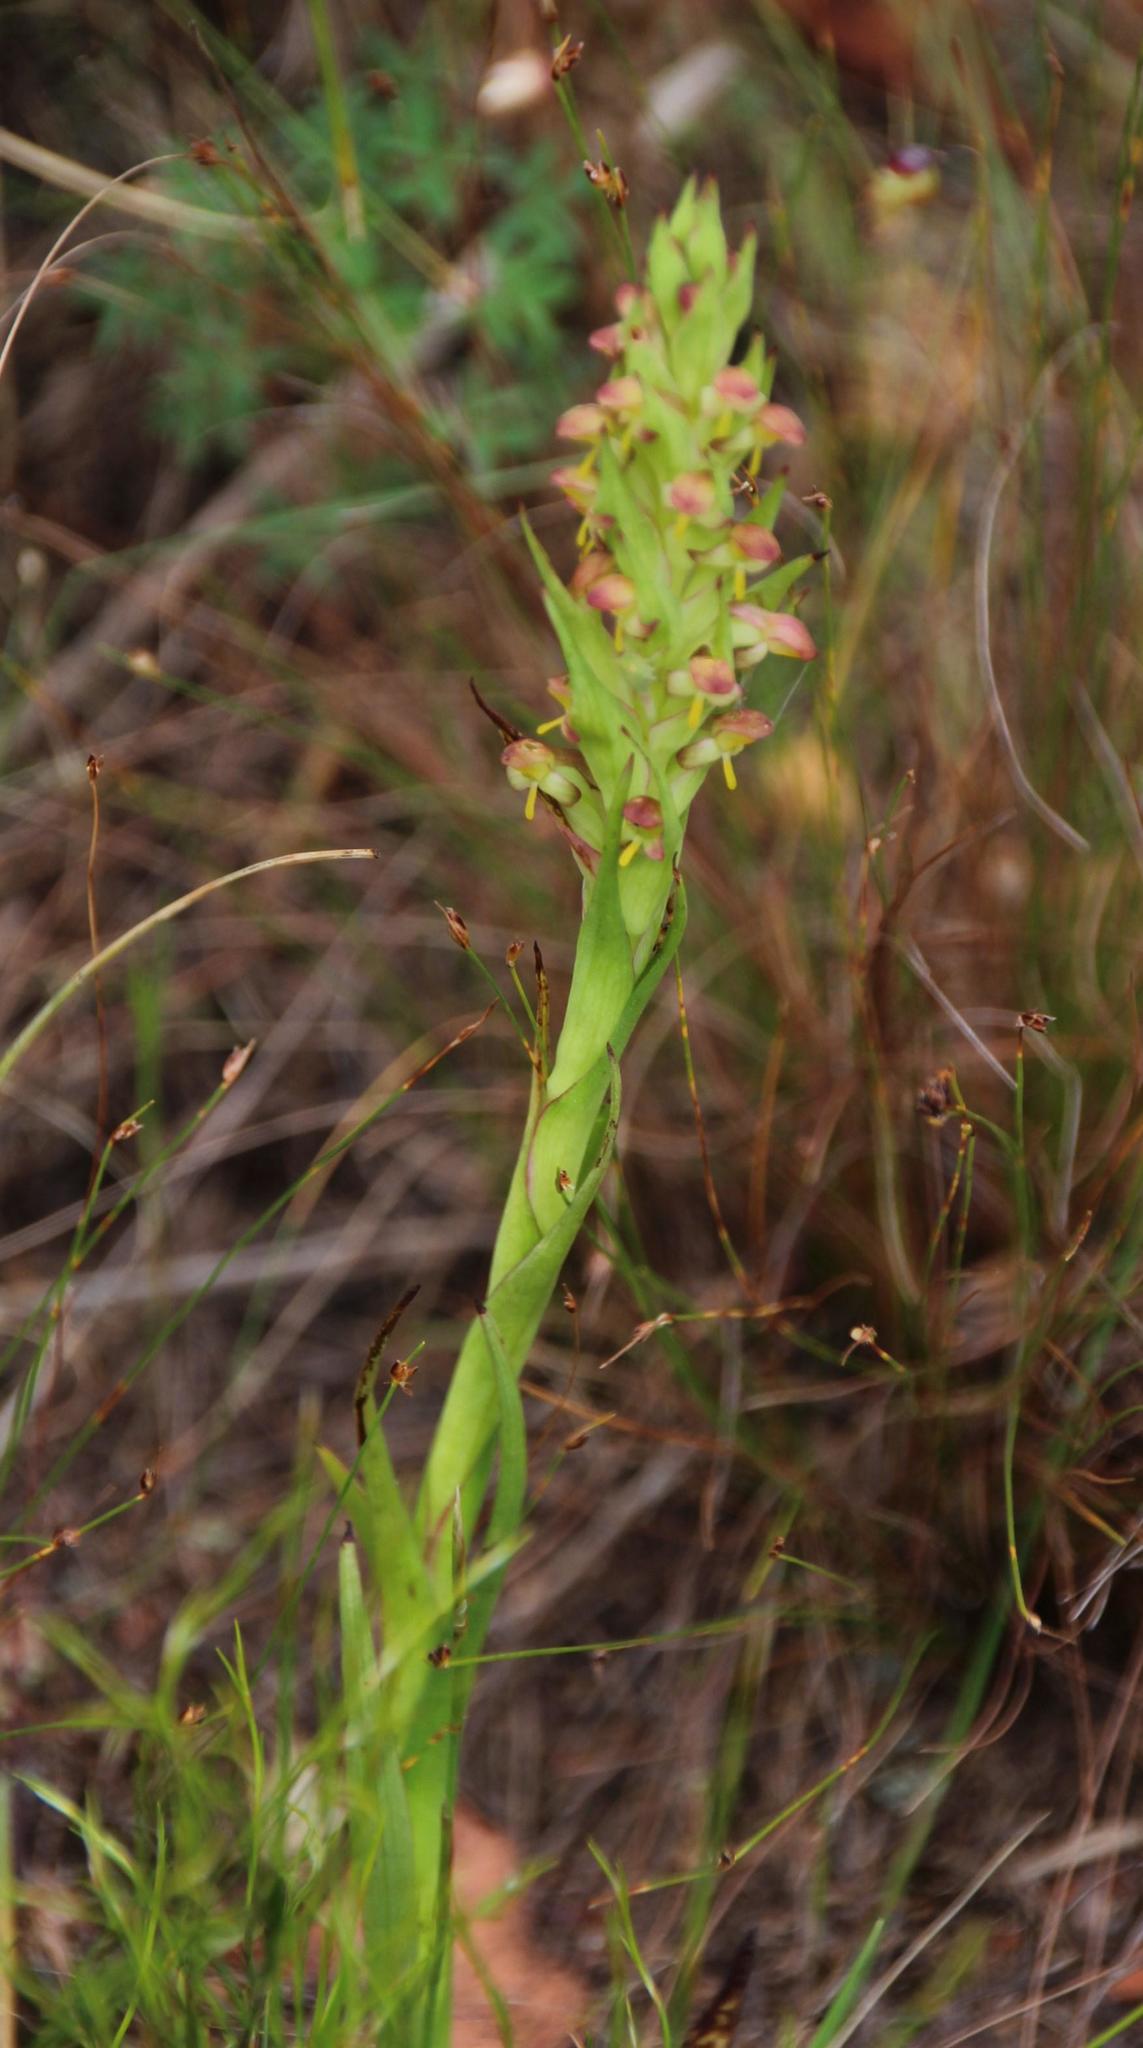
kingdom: Plantae
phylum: Tracheophyta
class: Liliopsida
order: Asparagales
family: Orchidaceae
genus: Disa
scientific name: Disa bracteata
